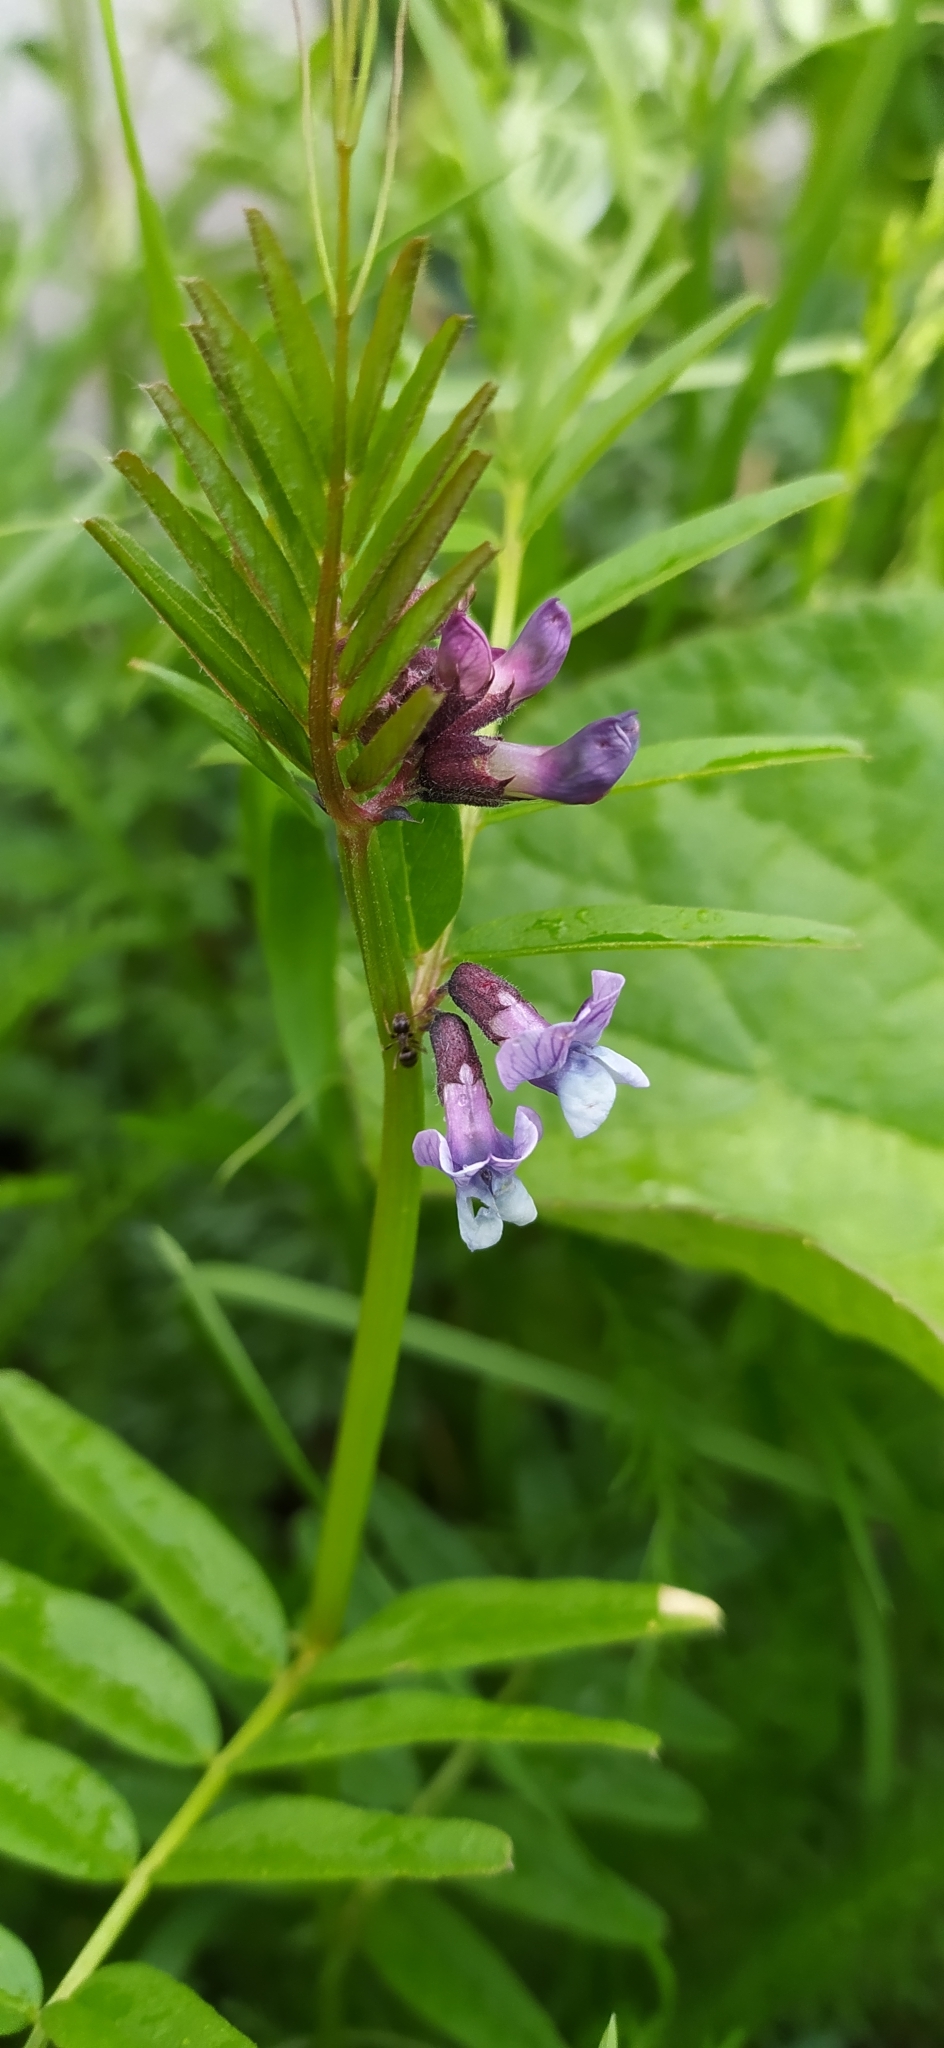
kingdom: Plantae
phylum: Tracheophyta
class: Magnoliopsida
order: Fabales
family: Fabaceae
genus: Vicia
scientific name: Vicia sepium
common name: Bush vetch
